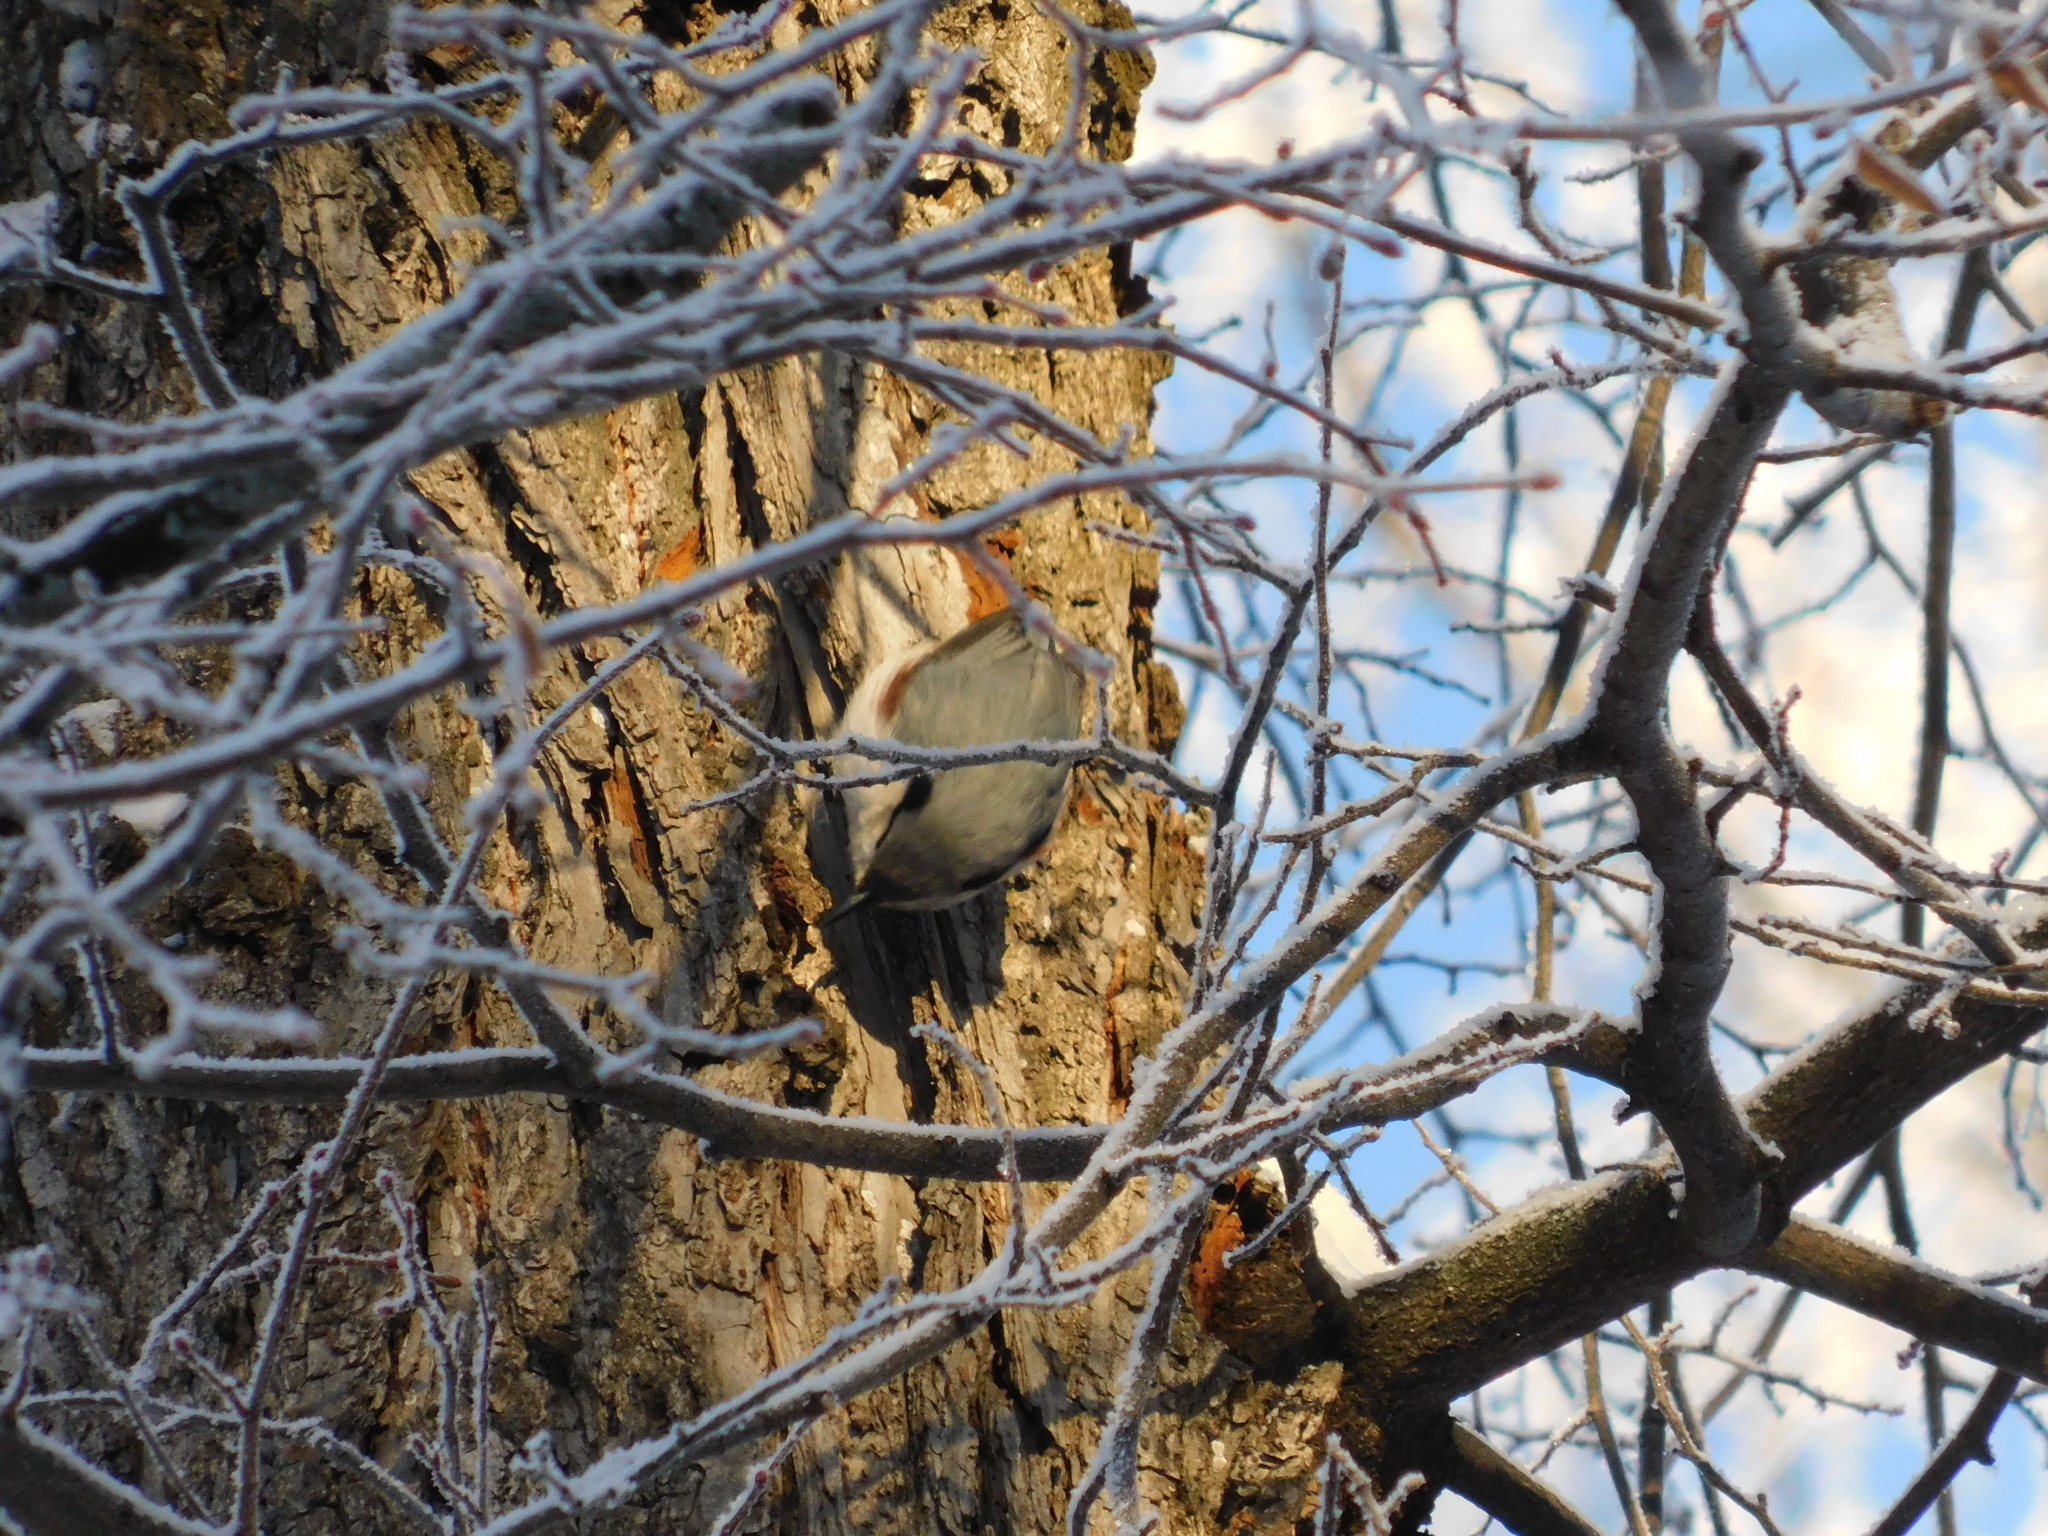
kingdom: Animalia
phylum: Chordata
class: Aves
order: Passeriformes
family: Sittidae
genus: Sitta
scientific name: Sitta europaea
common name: Eurasian nuthatch
